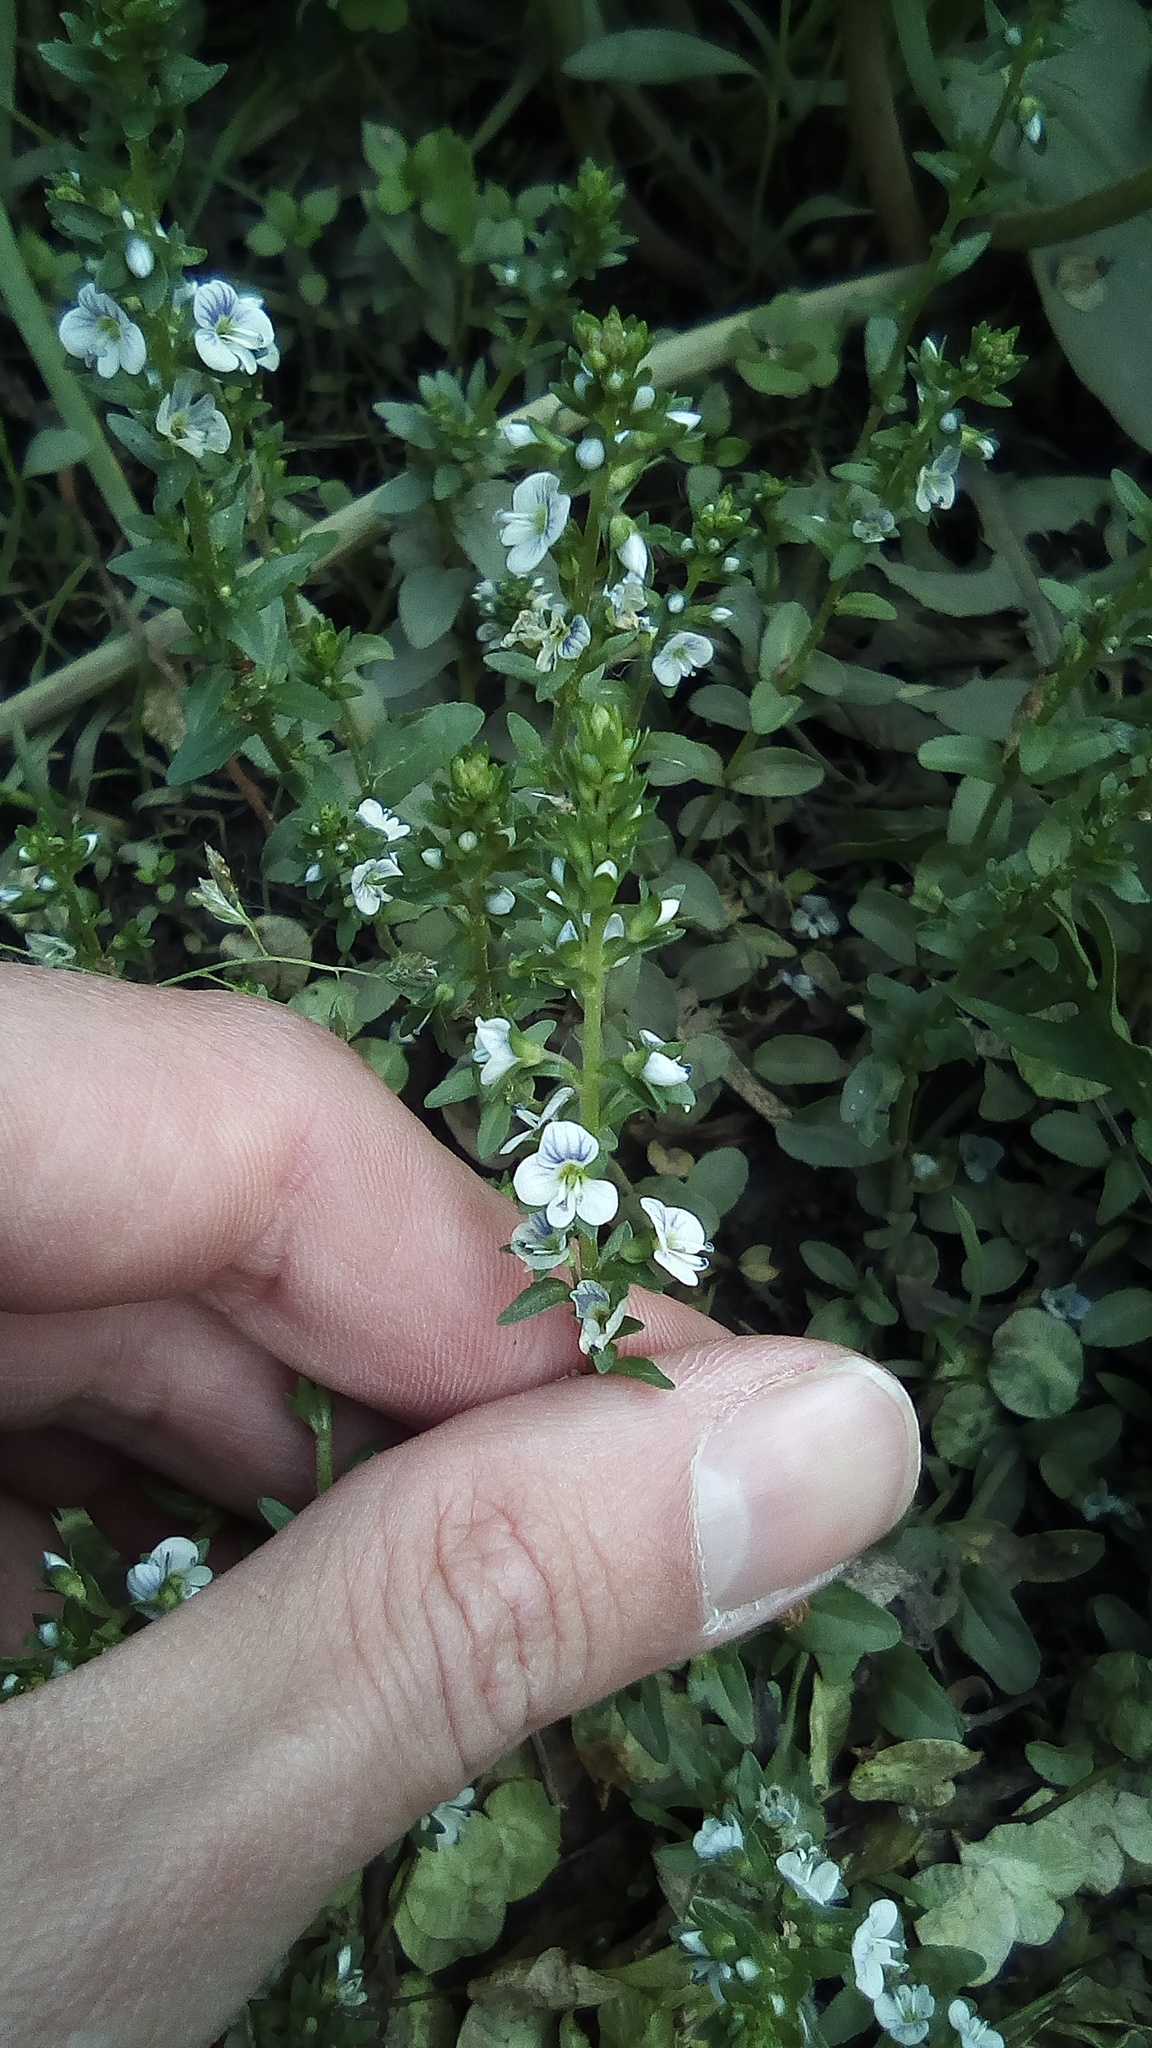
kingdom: Plantae
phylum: Tracheophyta
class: Magnoliopsida
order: Lamiales
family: Plantaginaceae
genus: Veronica
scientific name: Veronica serpyllifolia
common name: Thyme-leaved speedwell
